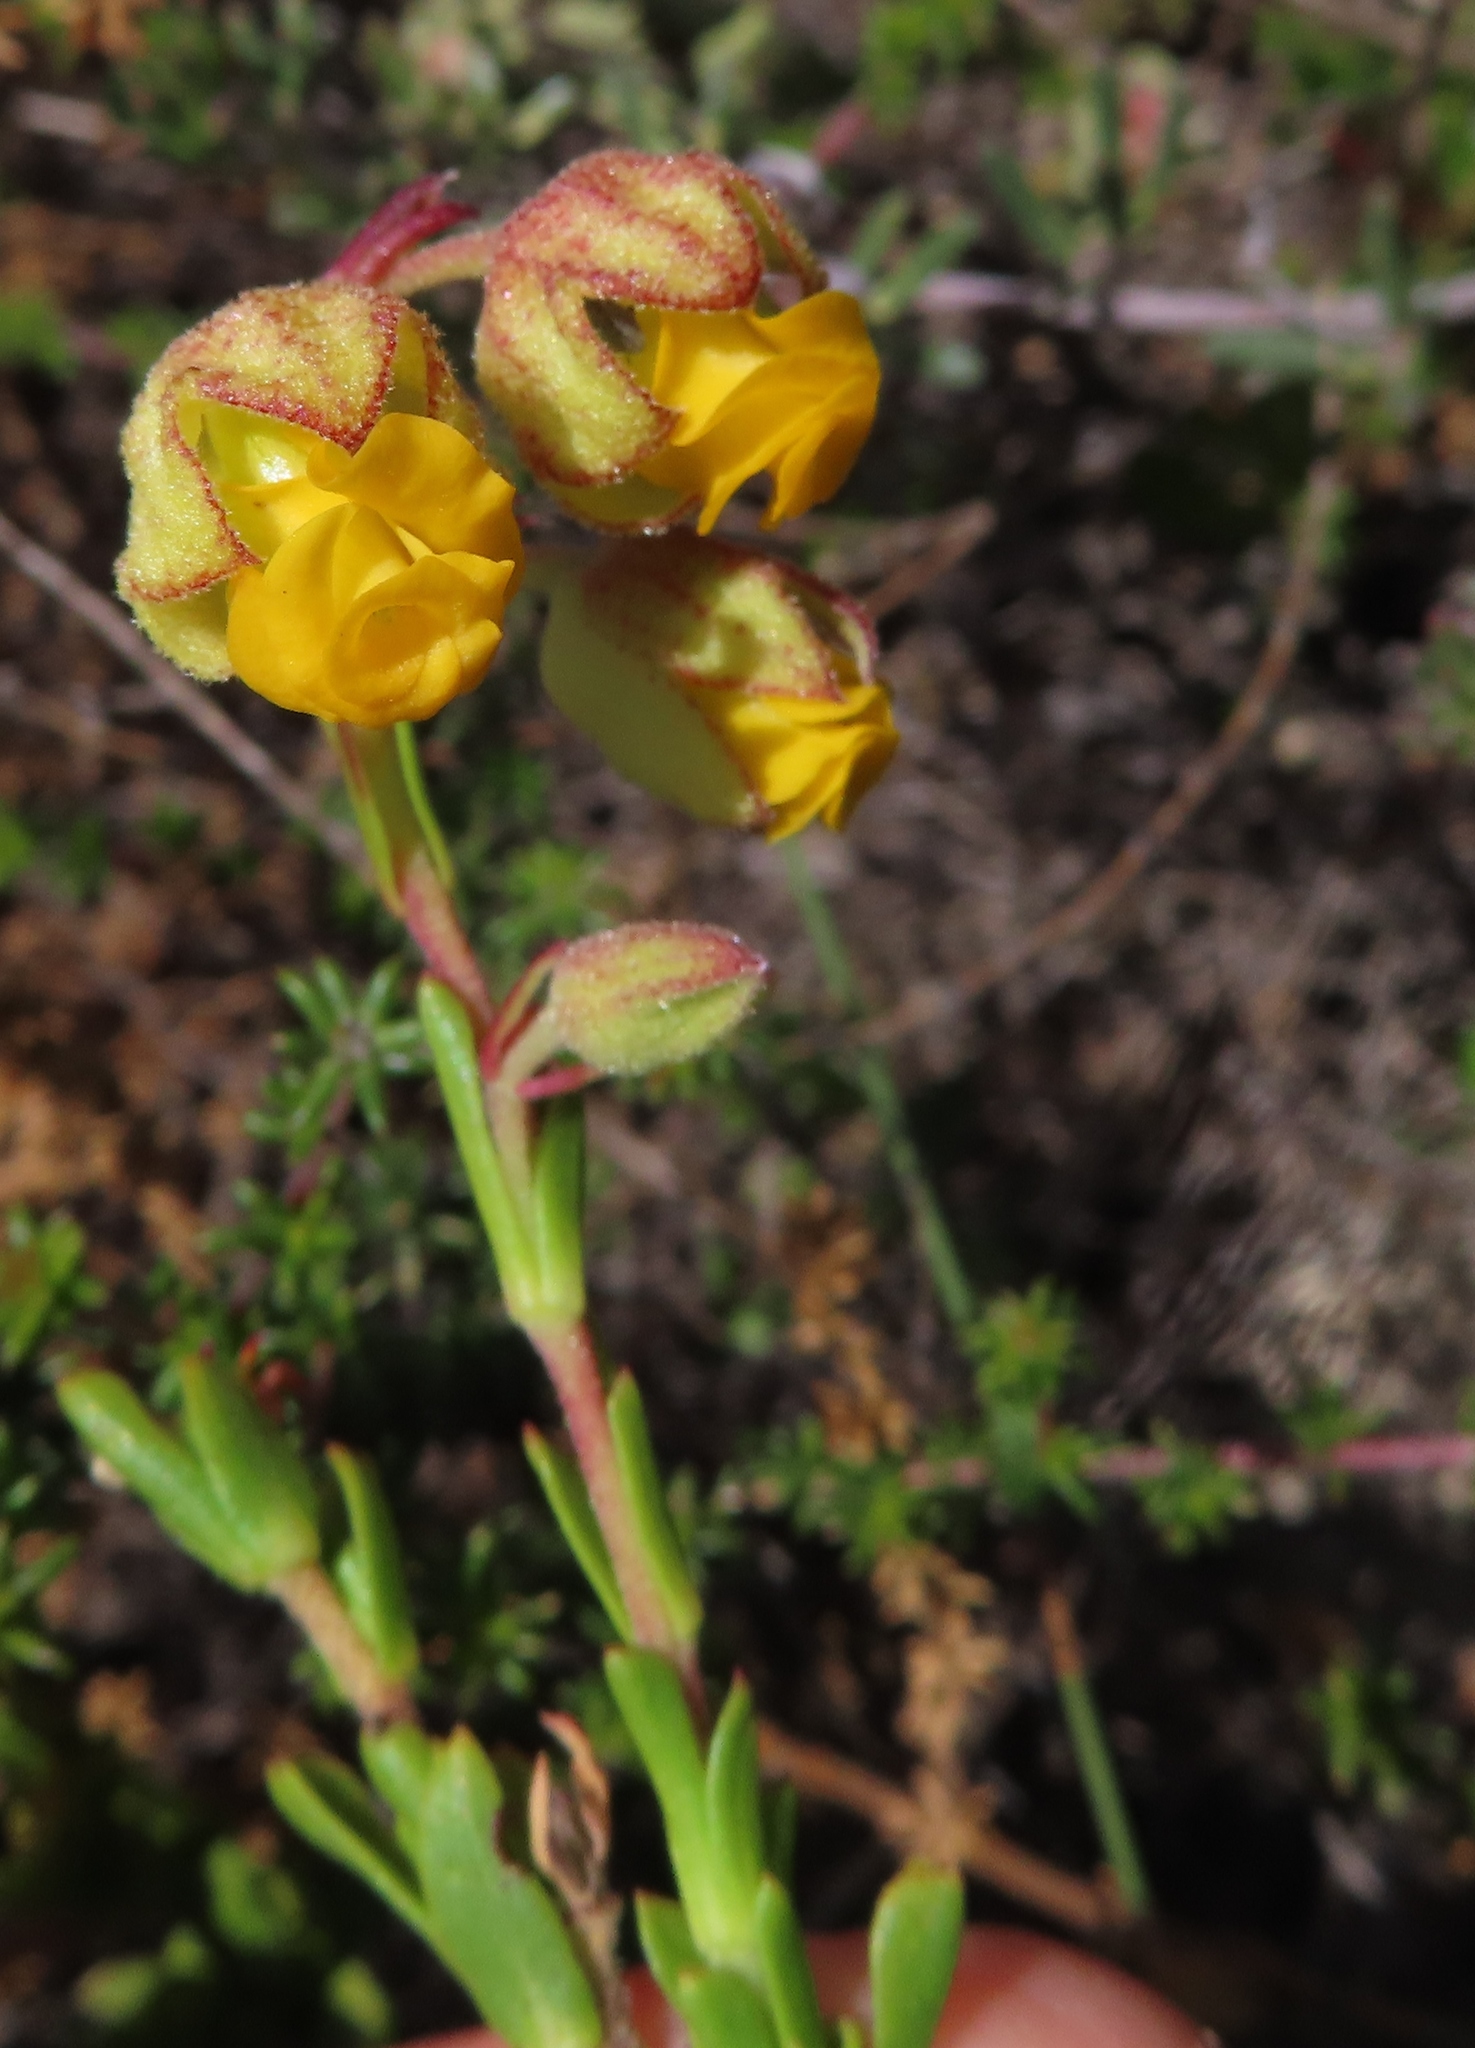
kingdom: Plantae
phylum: Tracheophyta
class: Magnoliopsida
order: Malvales
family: Malvaceae
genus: Hermannia
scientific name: Hermannia concinnifolia
